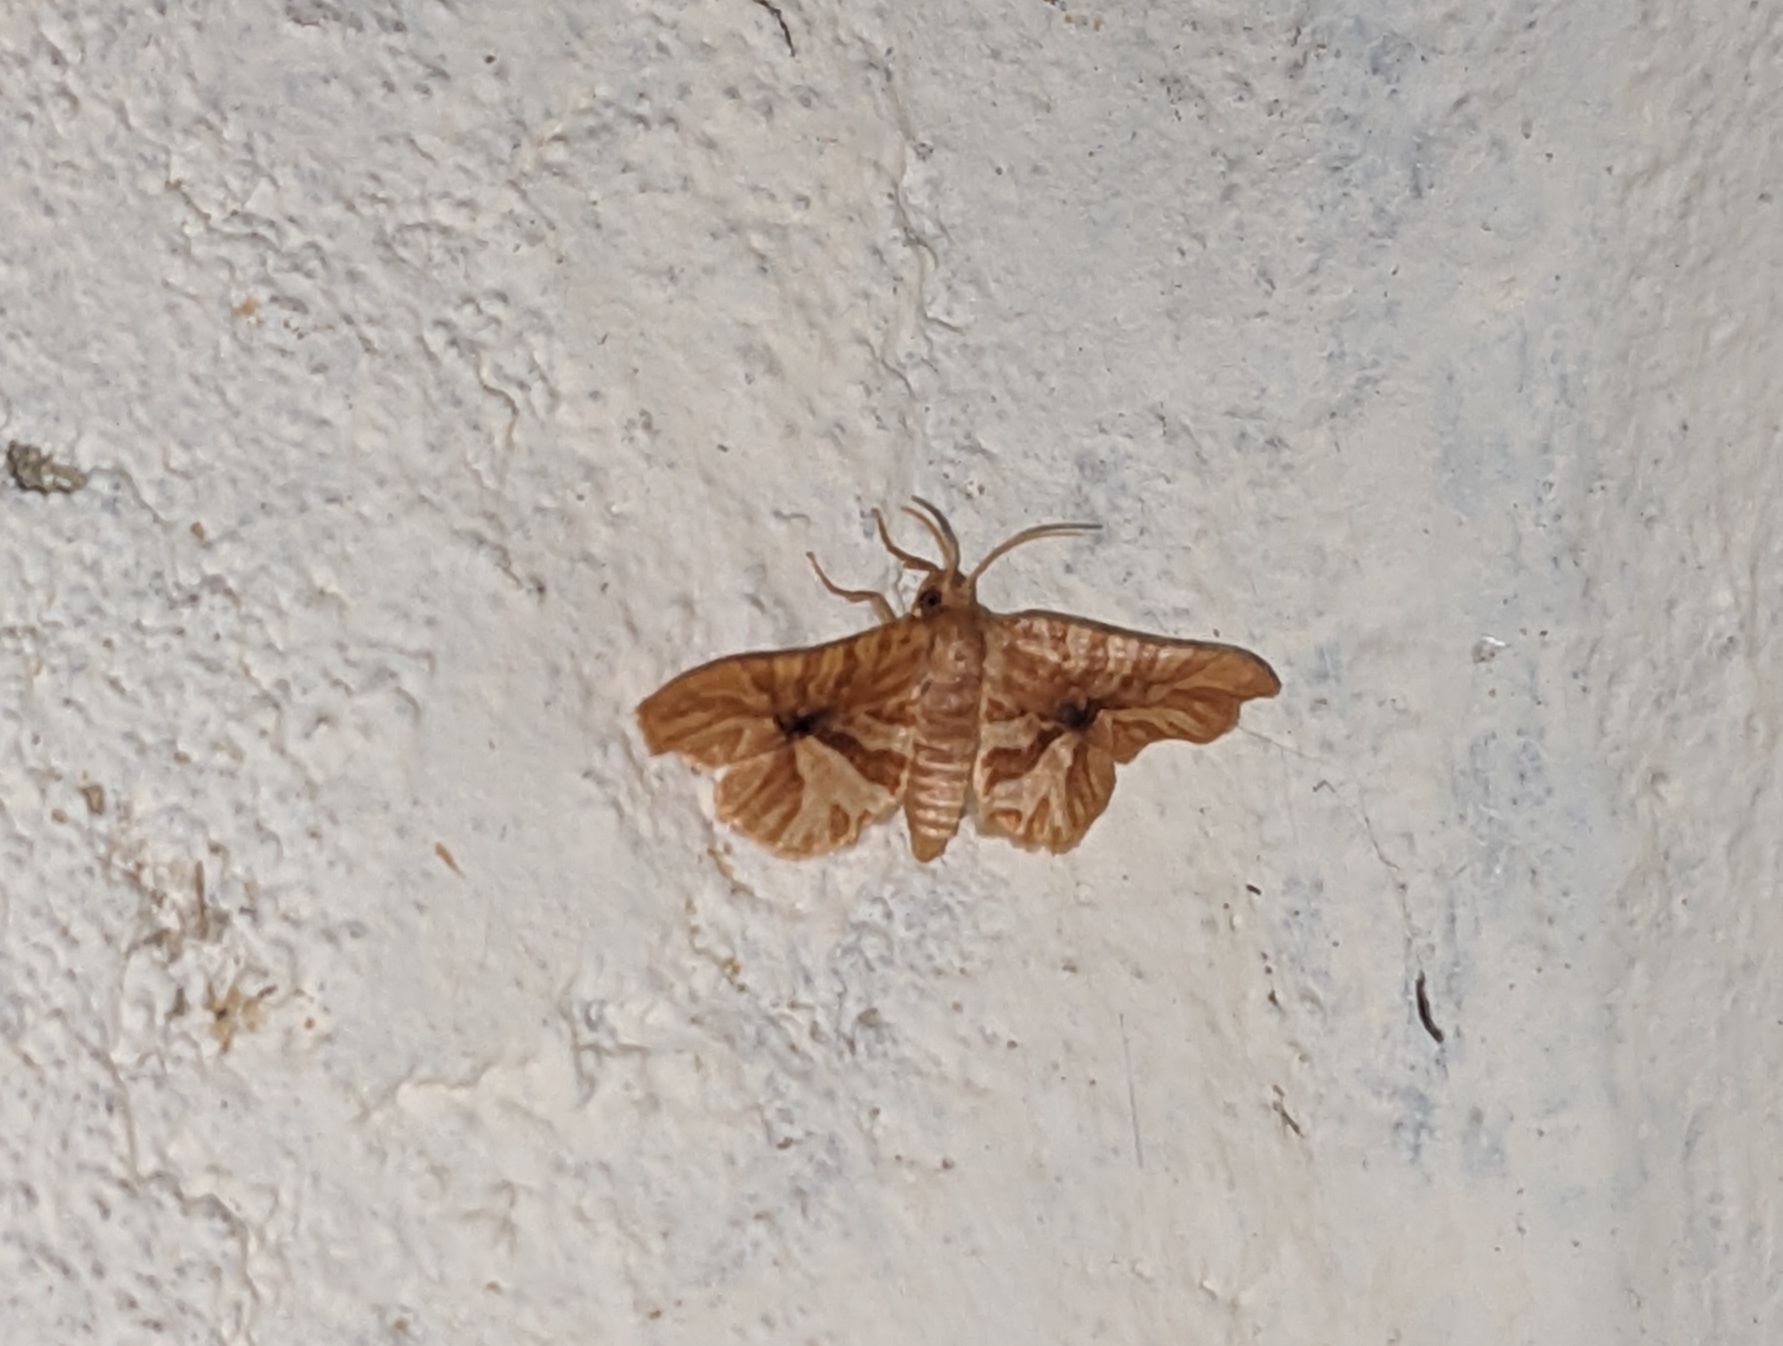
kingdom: Animalia
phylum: Arthropoda
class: Insecta
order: Lepidoptera
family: Thyrididae
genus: Epaena
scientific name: Epaena radiata
